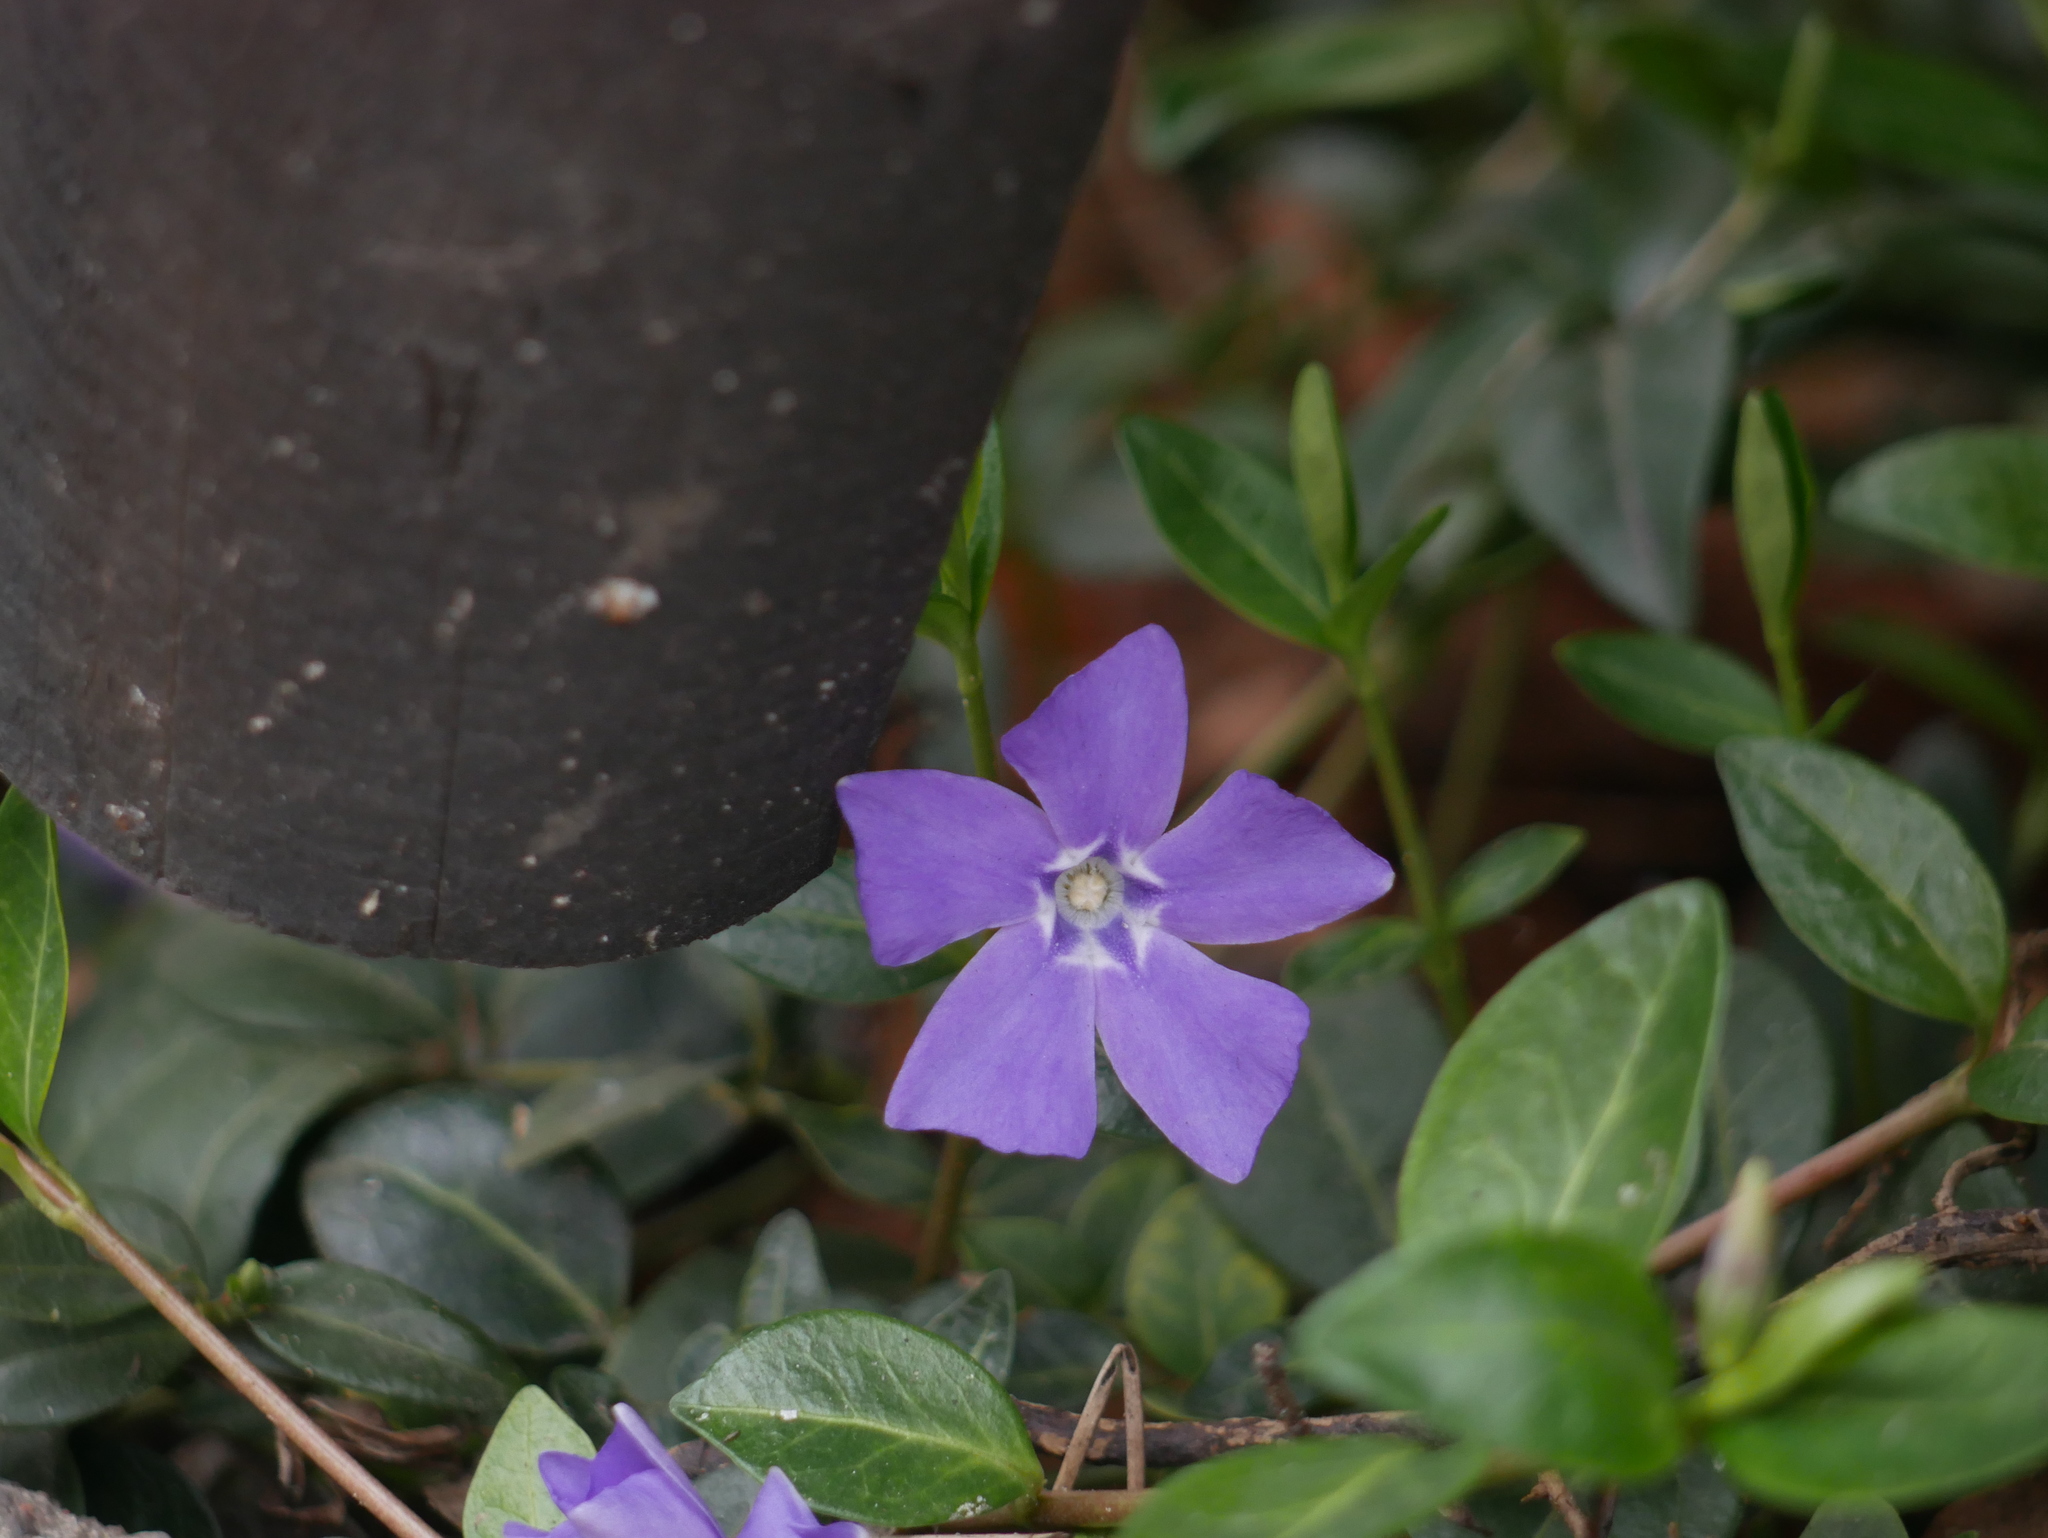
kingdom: Plantae
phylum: Tracheophyta
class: Magnoliopsida
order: Gentianales
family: Apocynaceae
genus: Vinca
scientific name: Vinca minor
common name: Lesser periwinkle
